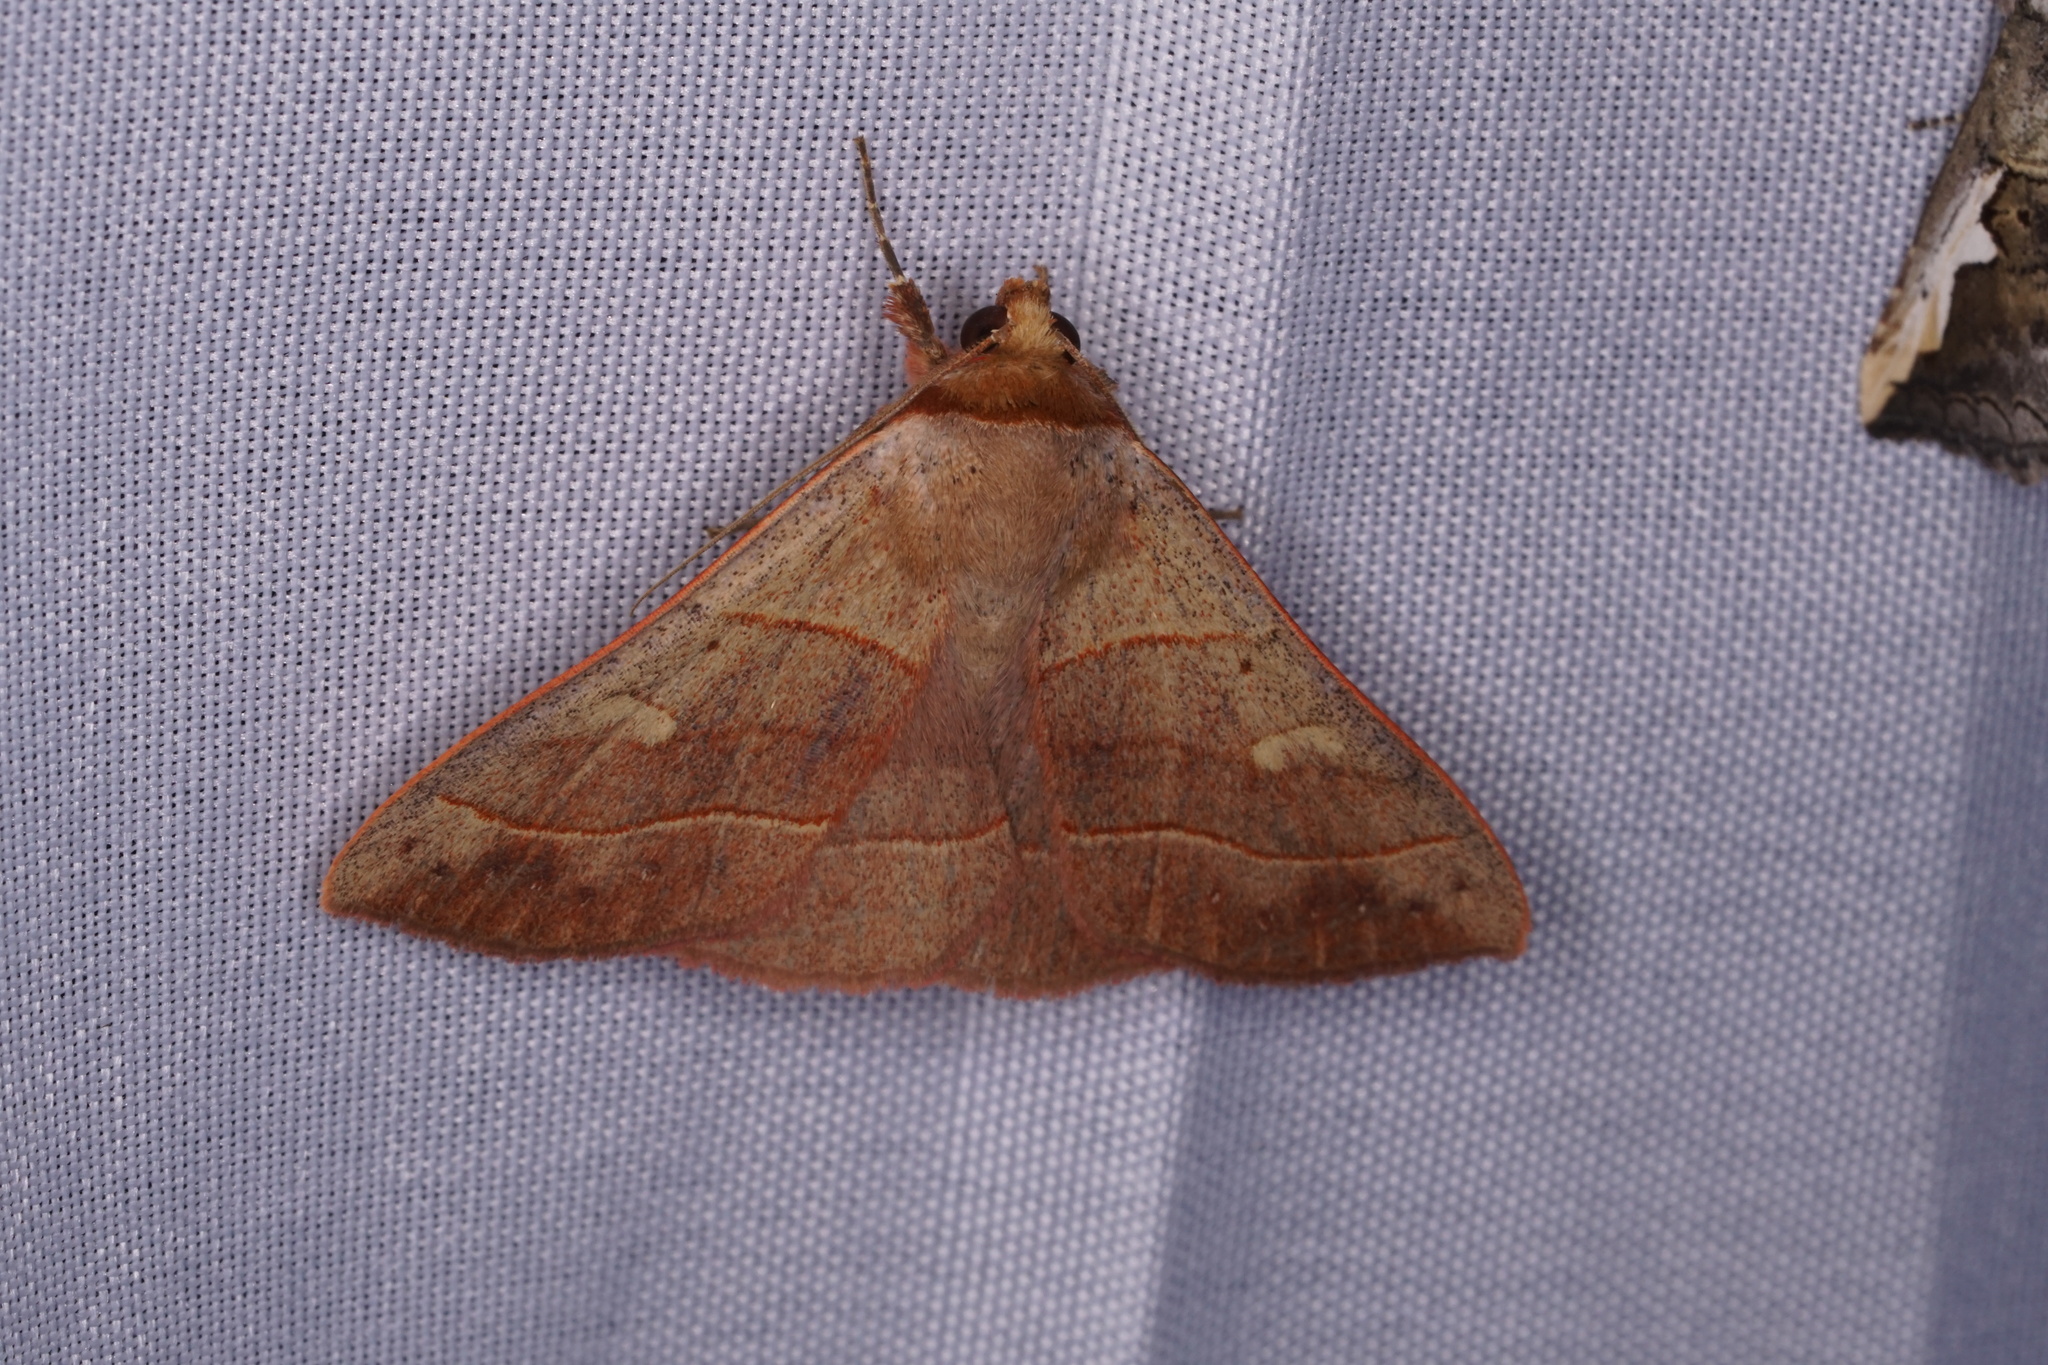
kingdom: Animalia
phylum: Arthropoda
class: Insecta
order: Lepidoptera
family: Erebidae
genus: Panopoda
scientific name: Panopoda rufimargo
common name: Red-lined panopoda moth
